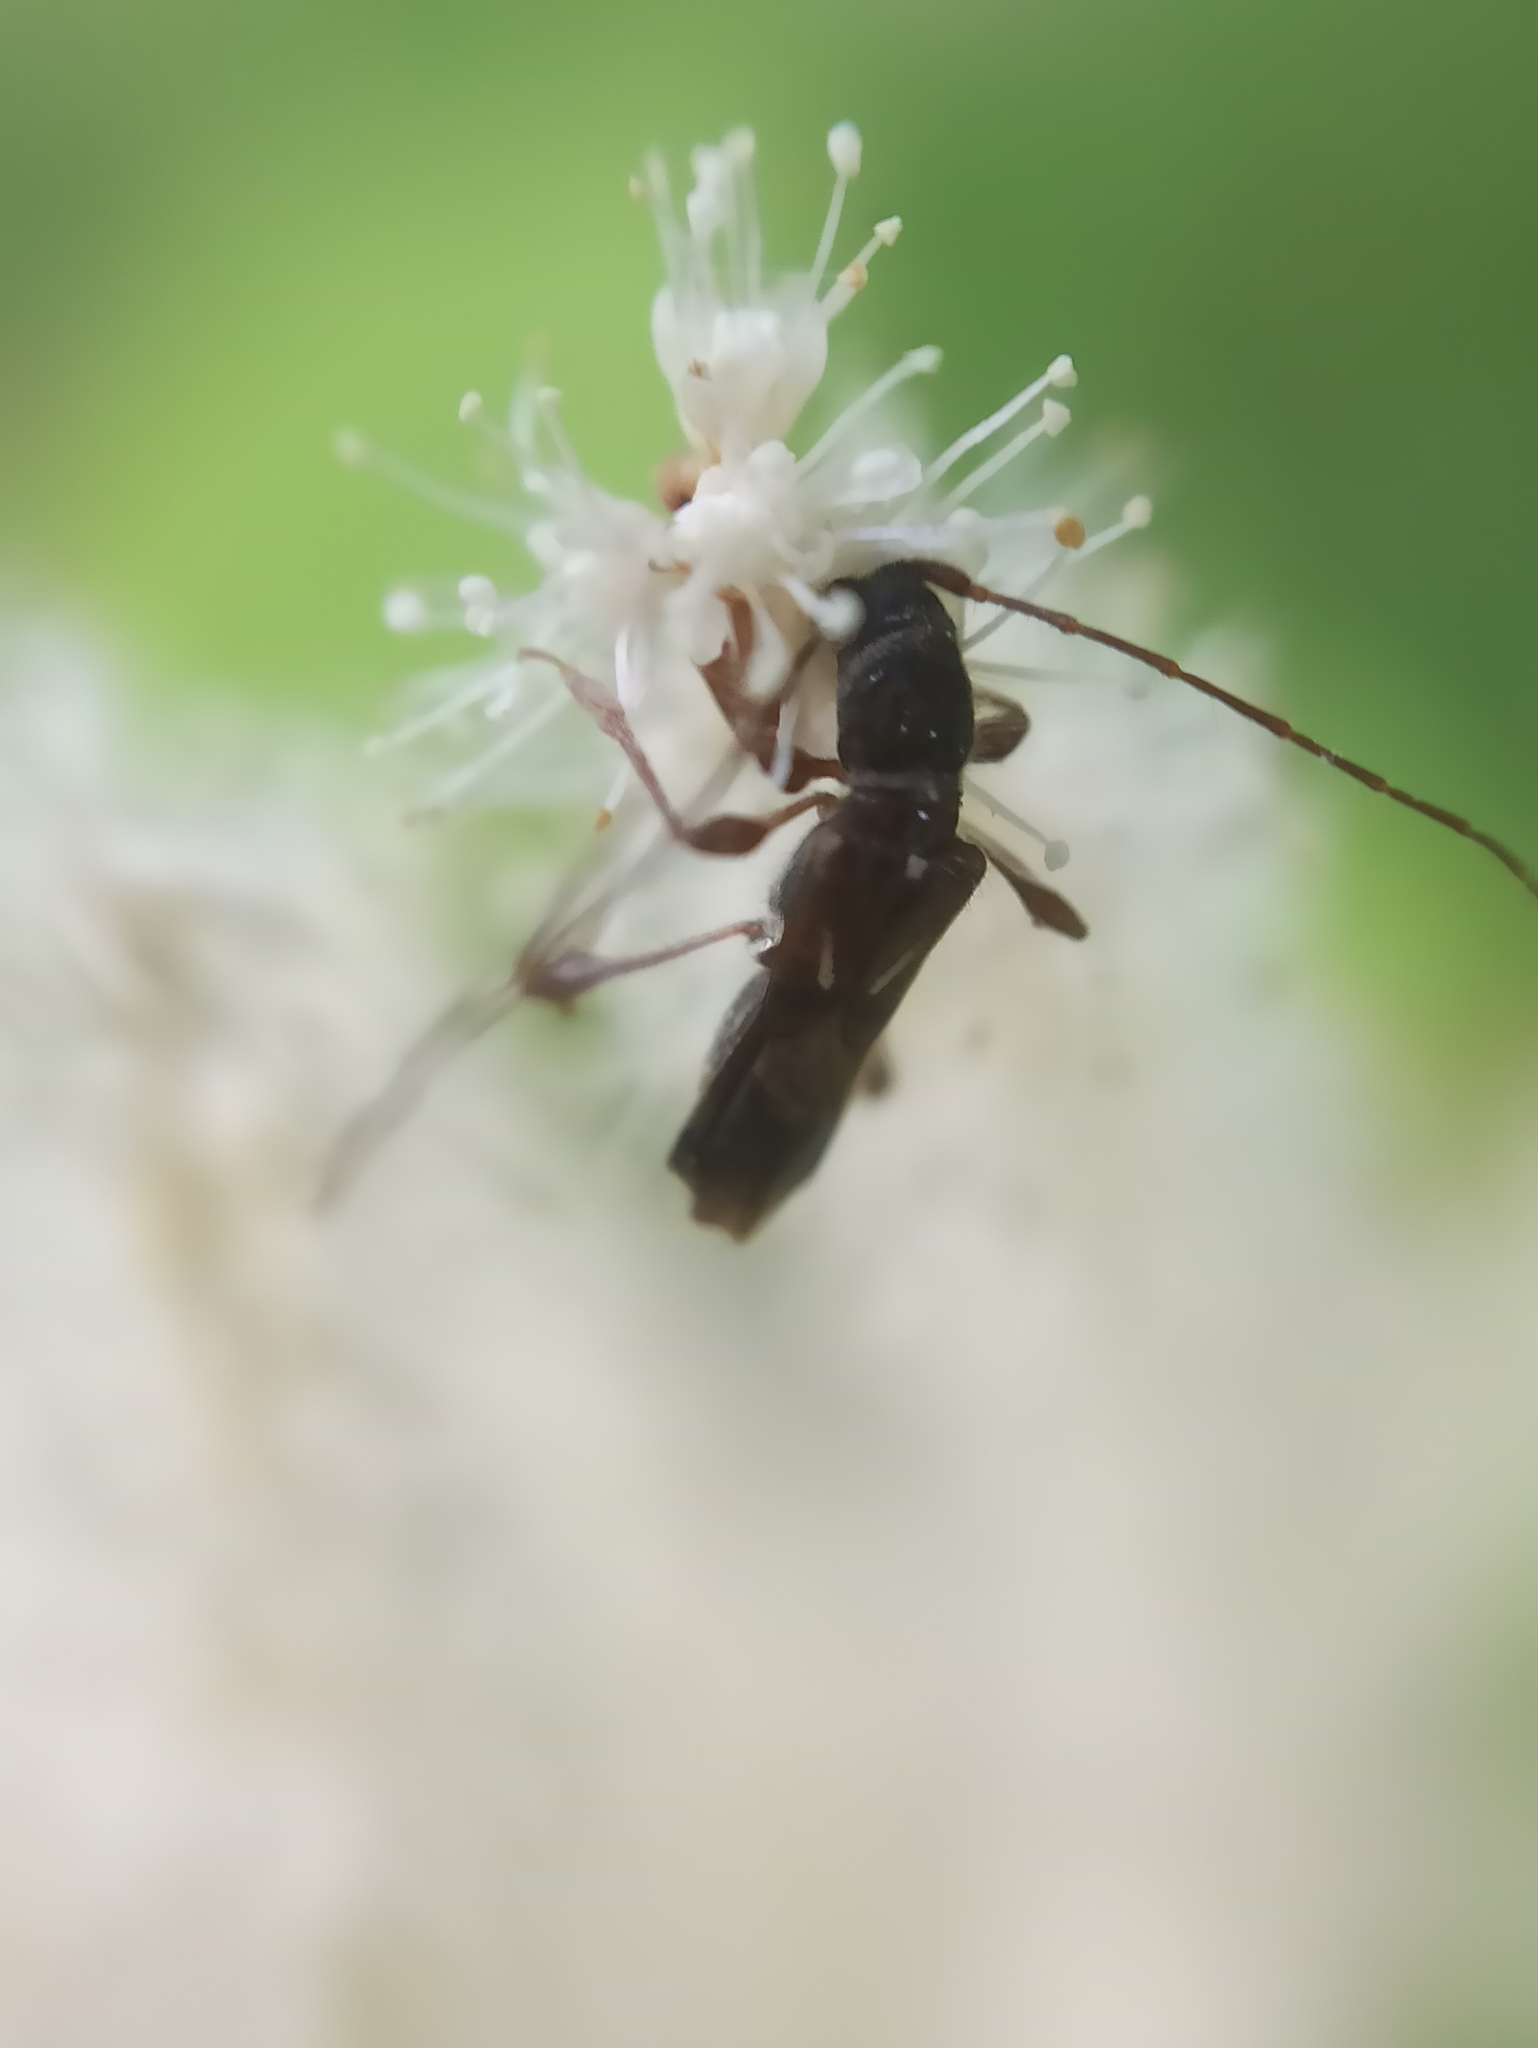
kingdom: Animalia
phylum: Arthropoda
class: Insecta
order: Coleoptera
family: Cerambycidae
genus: Molorchus
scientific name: Molorchus minor
